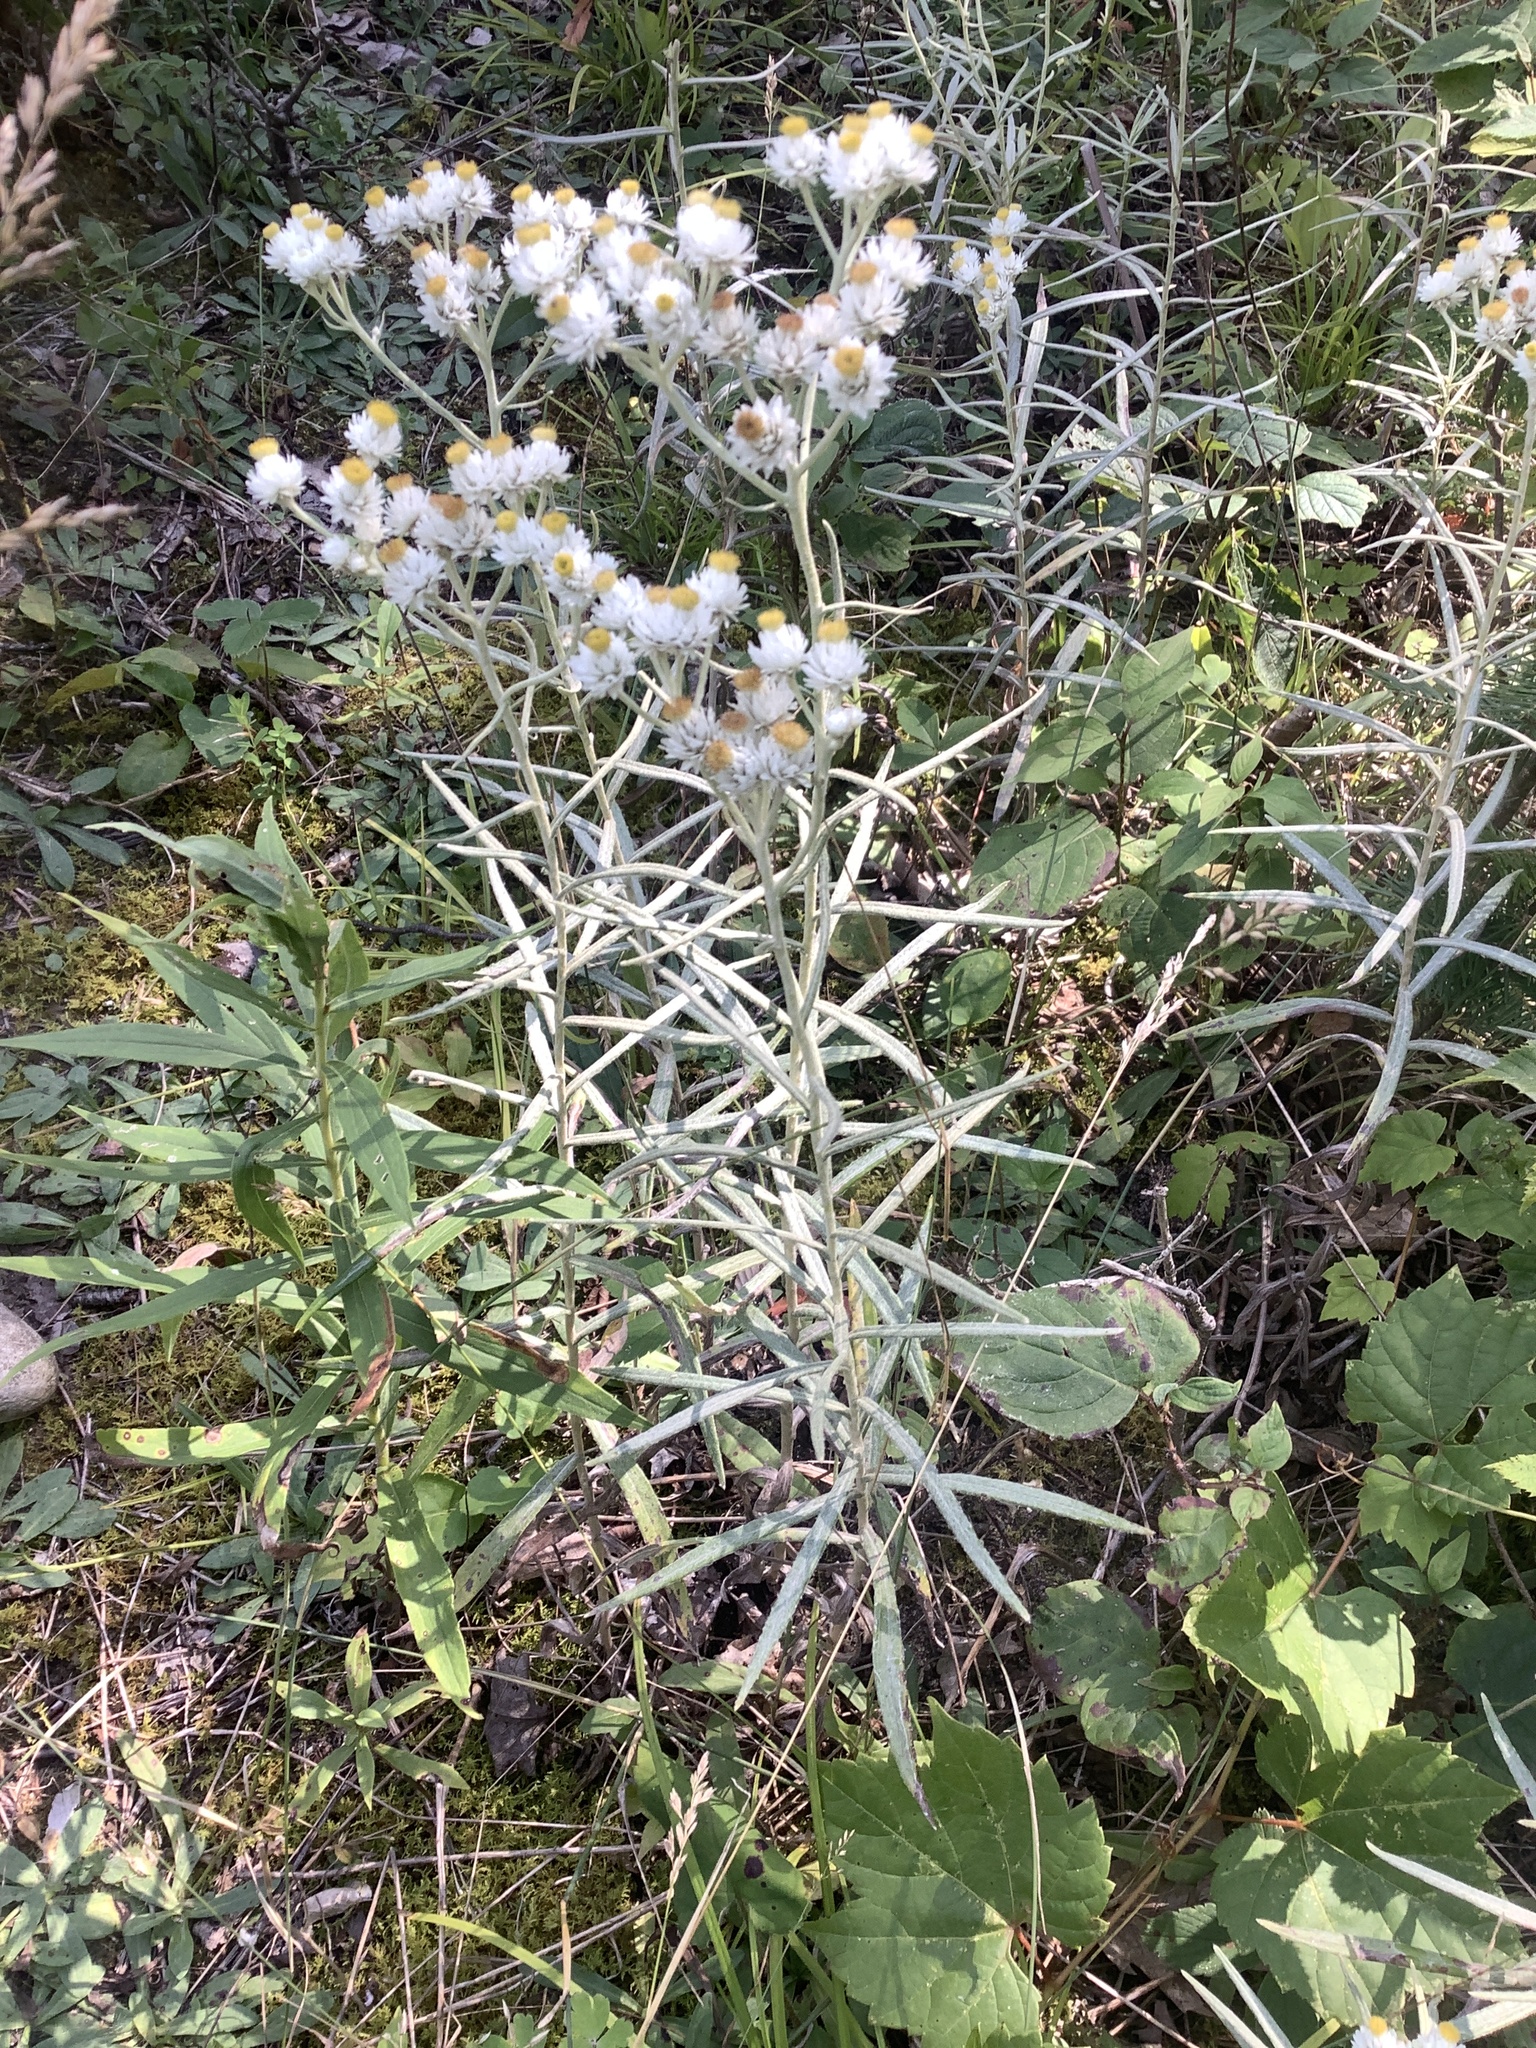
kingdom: Plantae
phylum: Tracheophyta
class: Magnoliopsida
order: Asterales
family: Asteraceae
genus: Anaphalis
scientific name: Anaphalis margaritacea
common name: Pearly everlasting
